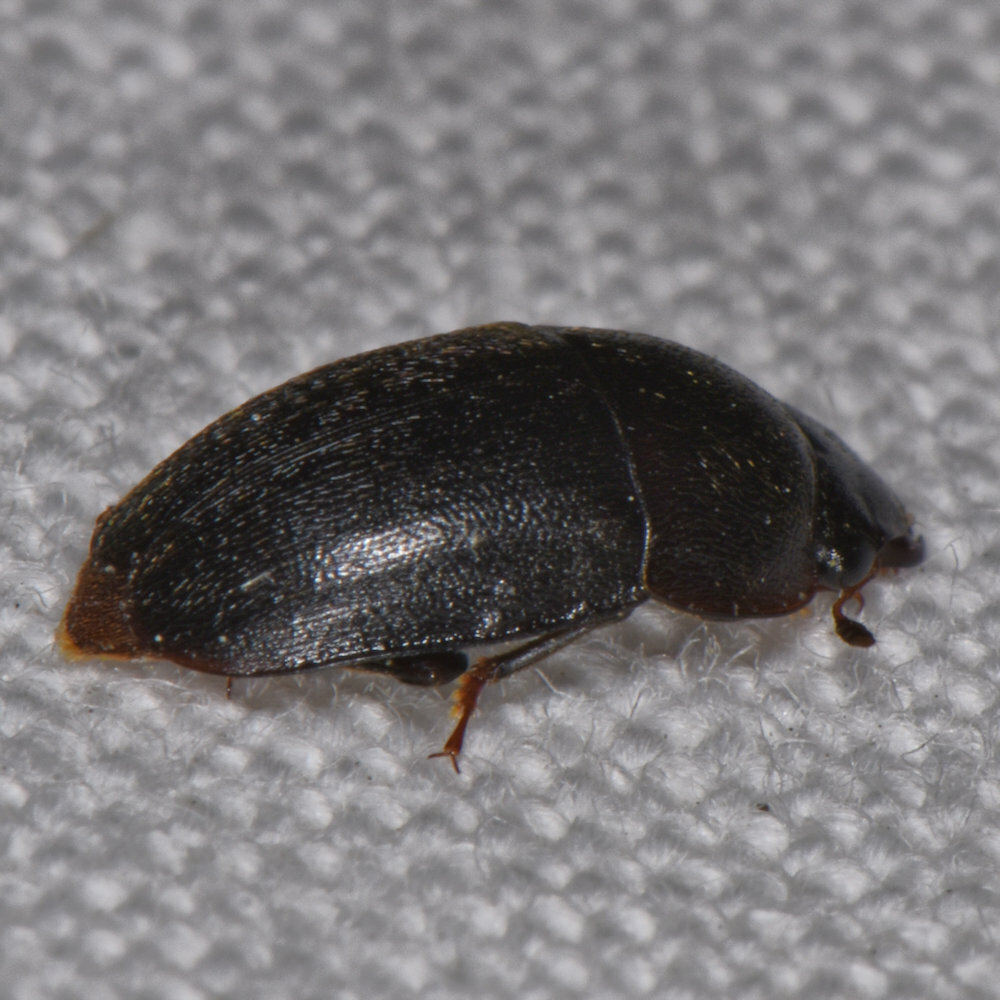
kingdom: Animalia
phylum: Arthropoda
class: Insecta
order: Coleoptera
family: Nitidulidae
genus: Cryptarcha
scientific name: Cryptarcha ampla
